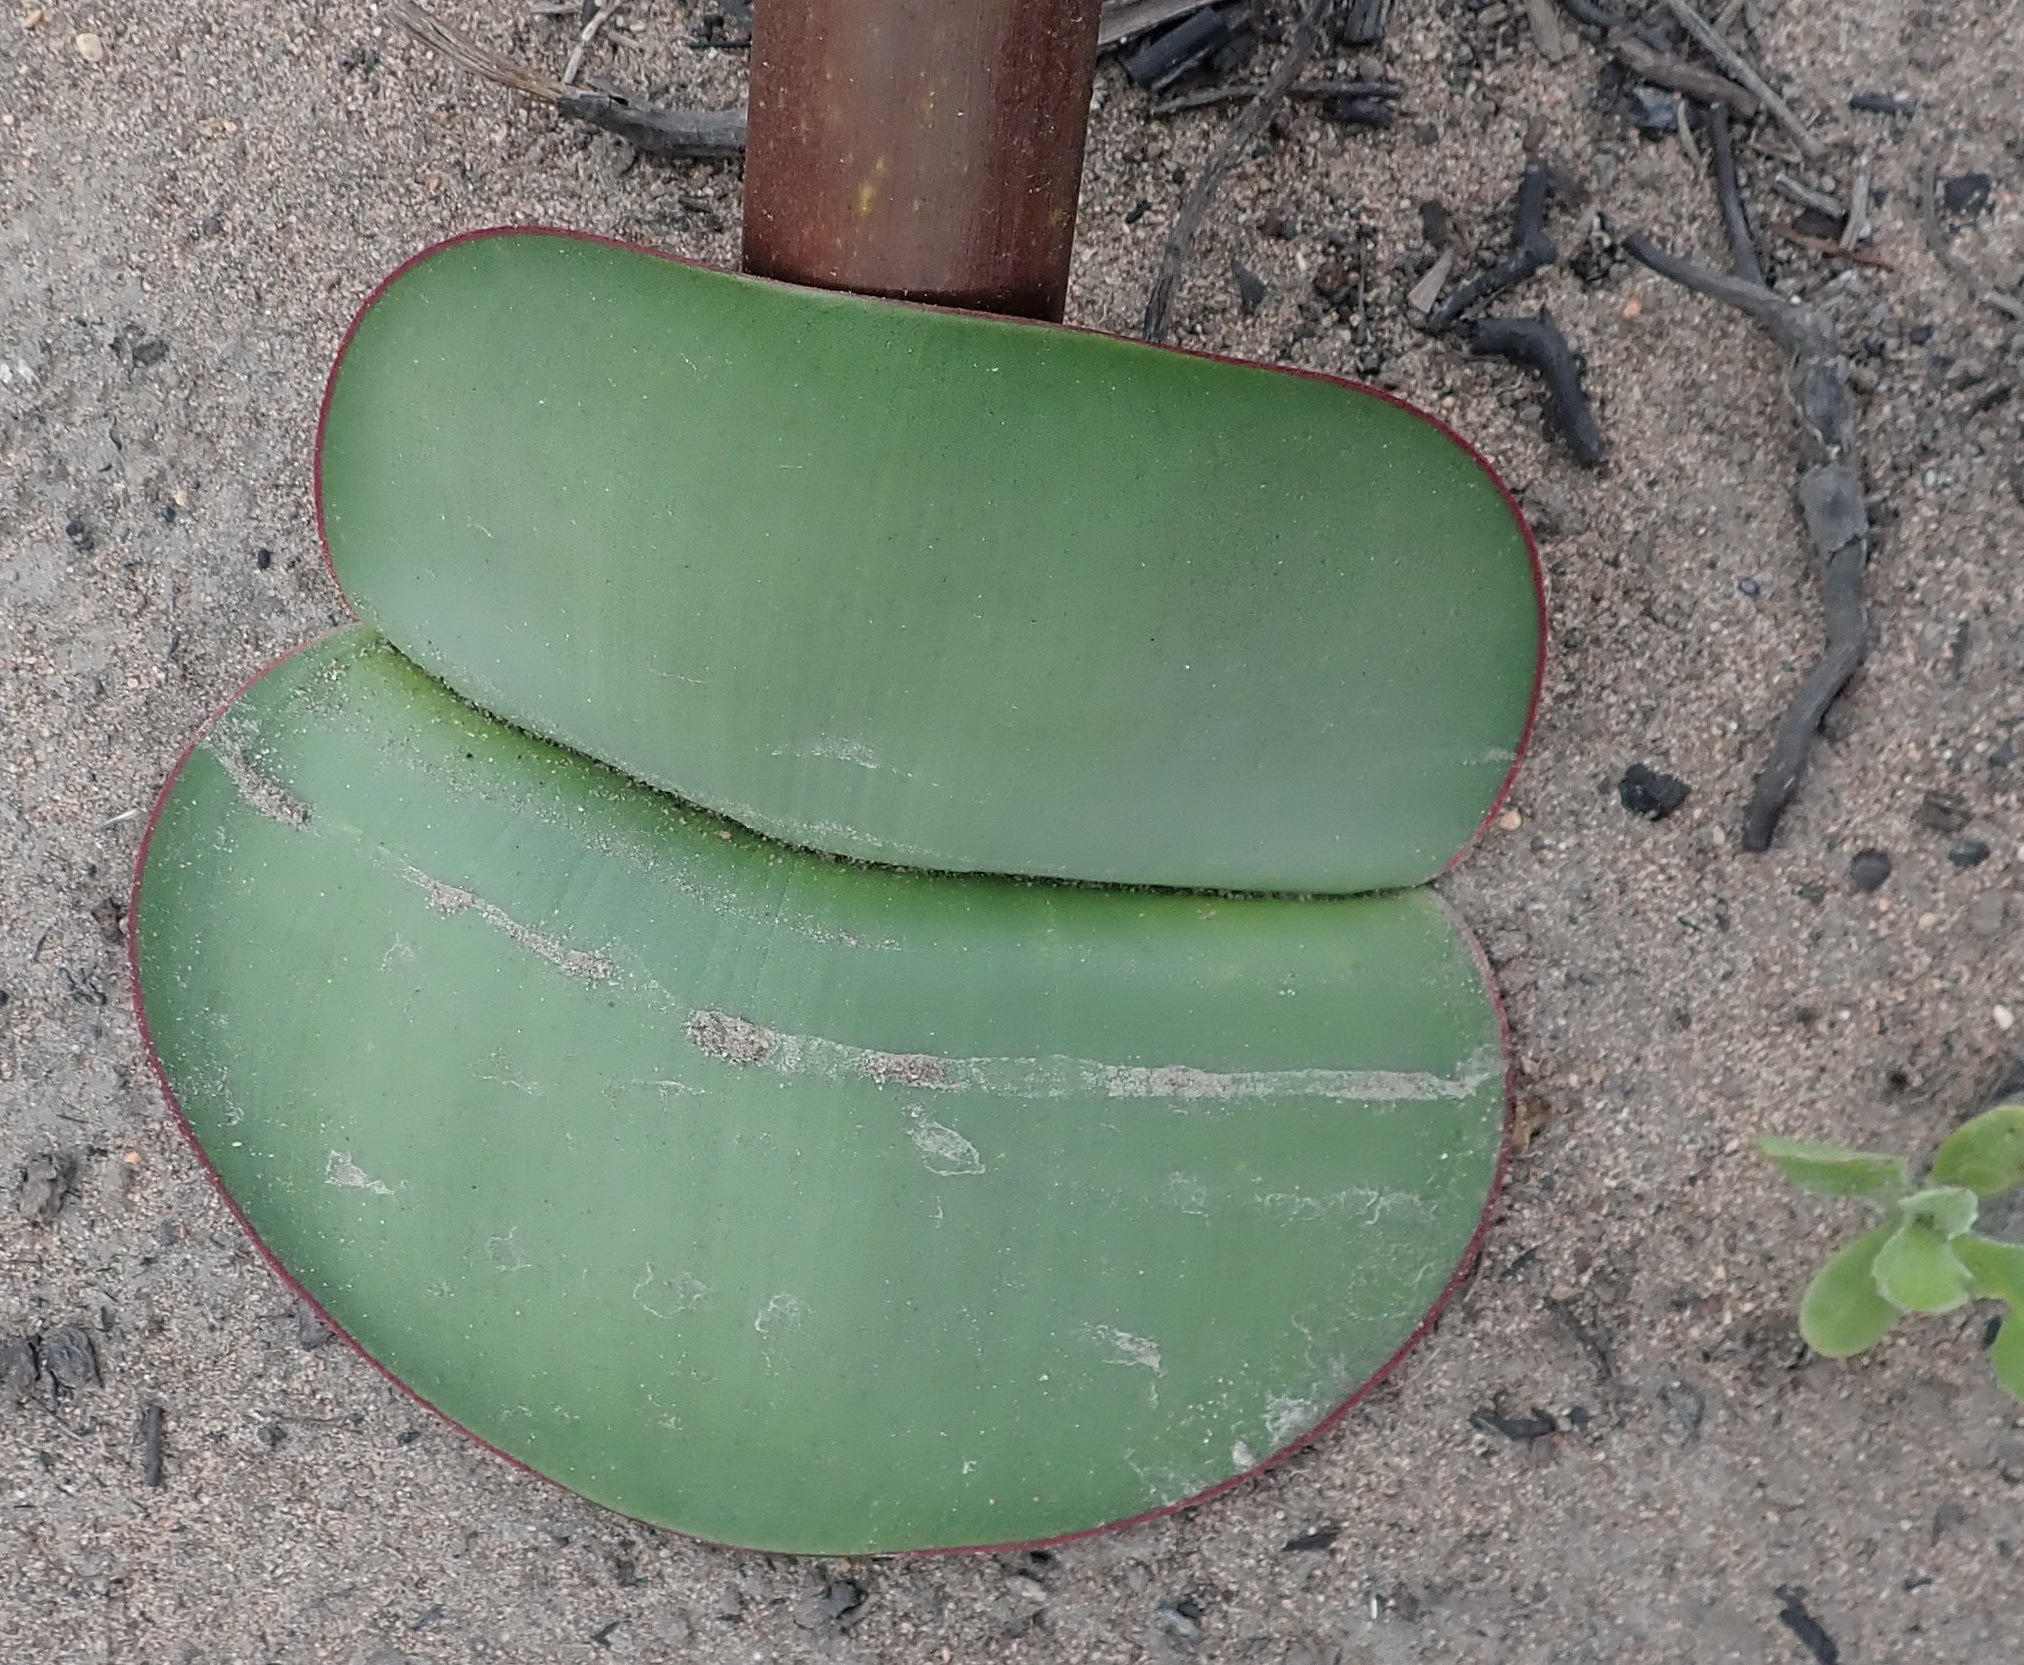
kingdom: Plantae
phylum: Tracheophyta
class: Liliopsida
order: Asparagales
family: Amaryllidaceae
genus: Haemanthus
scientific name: Haemanthus sanguineus
